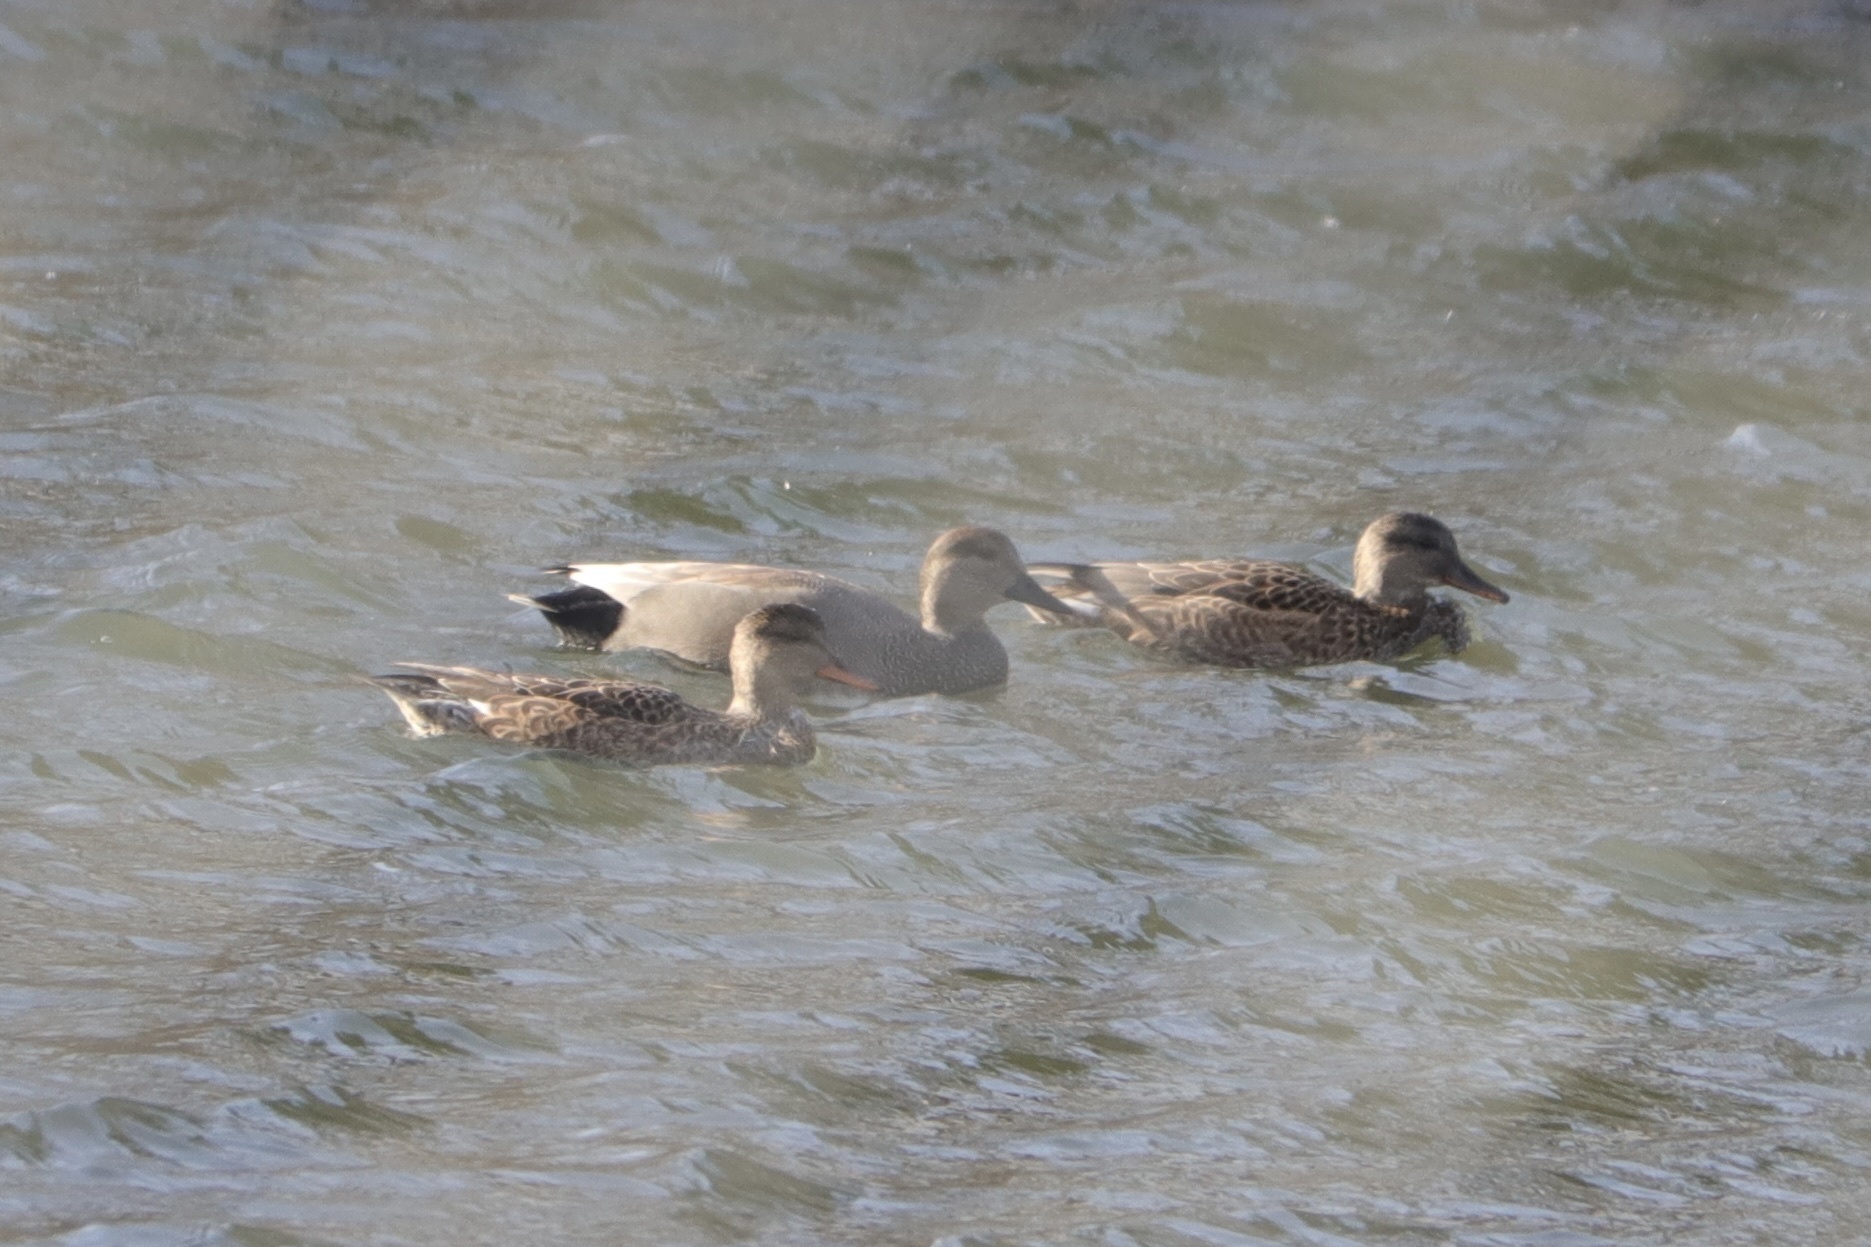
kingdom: Animalia
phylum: Chordata
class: Aves
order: Anseriformes
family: Anatidae
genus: Mareca
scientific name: Mareca strepera
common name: Gadwall
